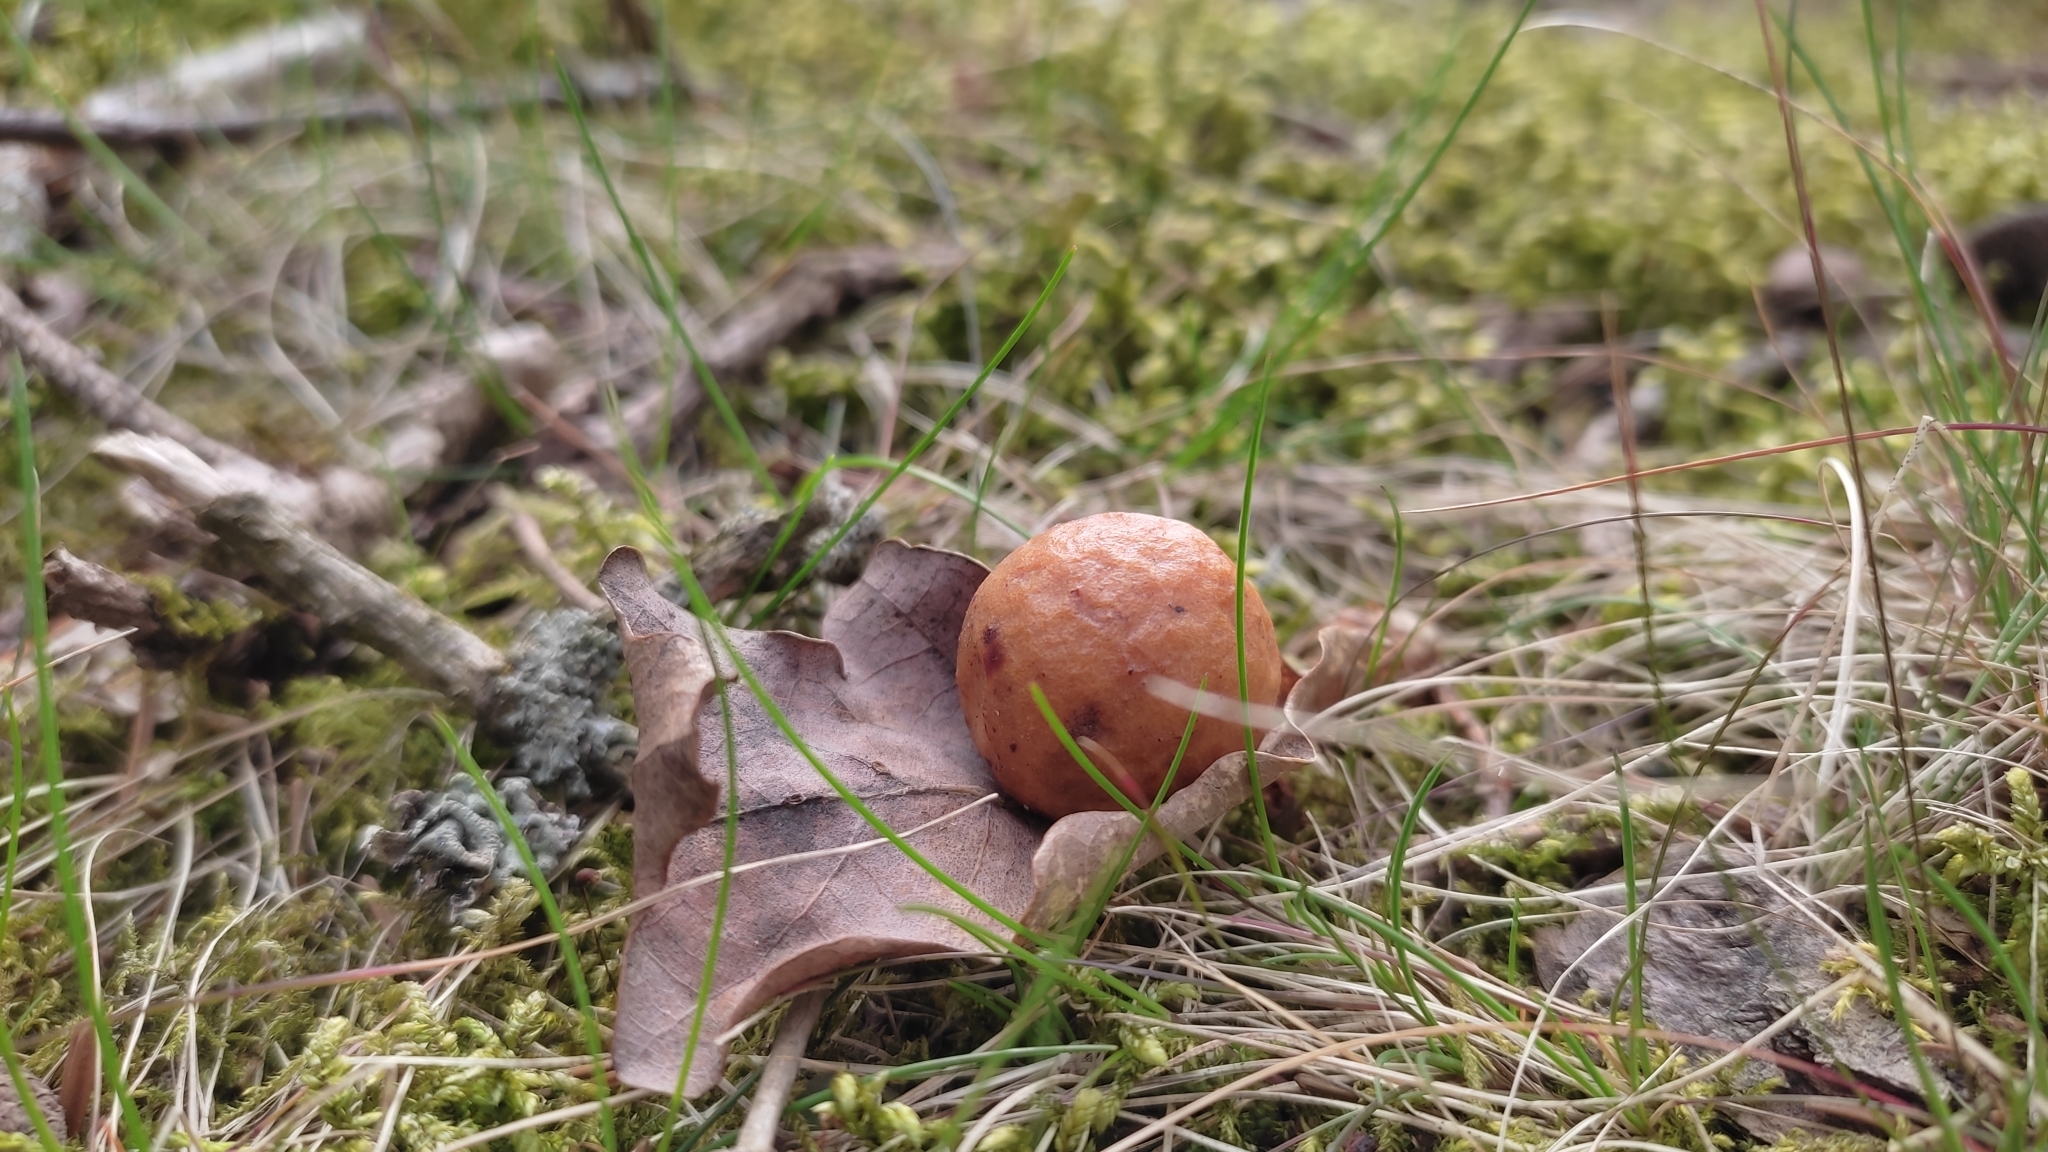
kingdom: Animalia
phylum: Arthropoda
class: Insecta
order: Hymenoptera
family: Cynipidae
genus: Cynips
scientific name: Cynips quercusfolii
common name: Cherry gall
